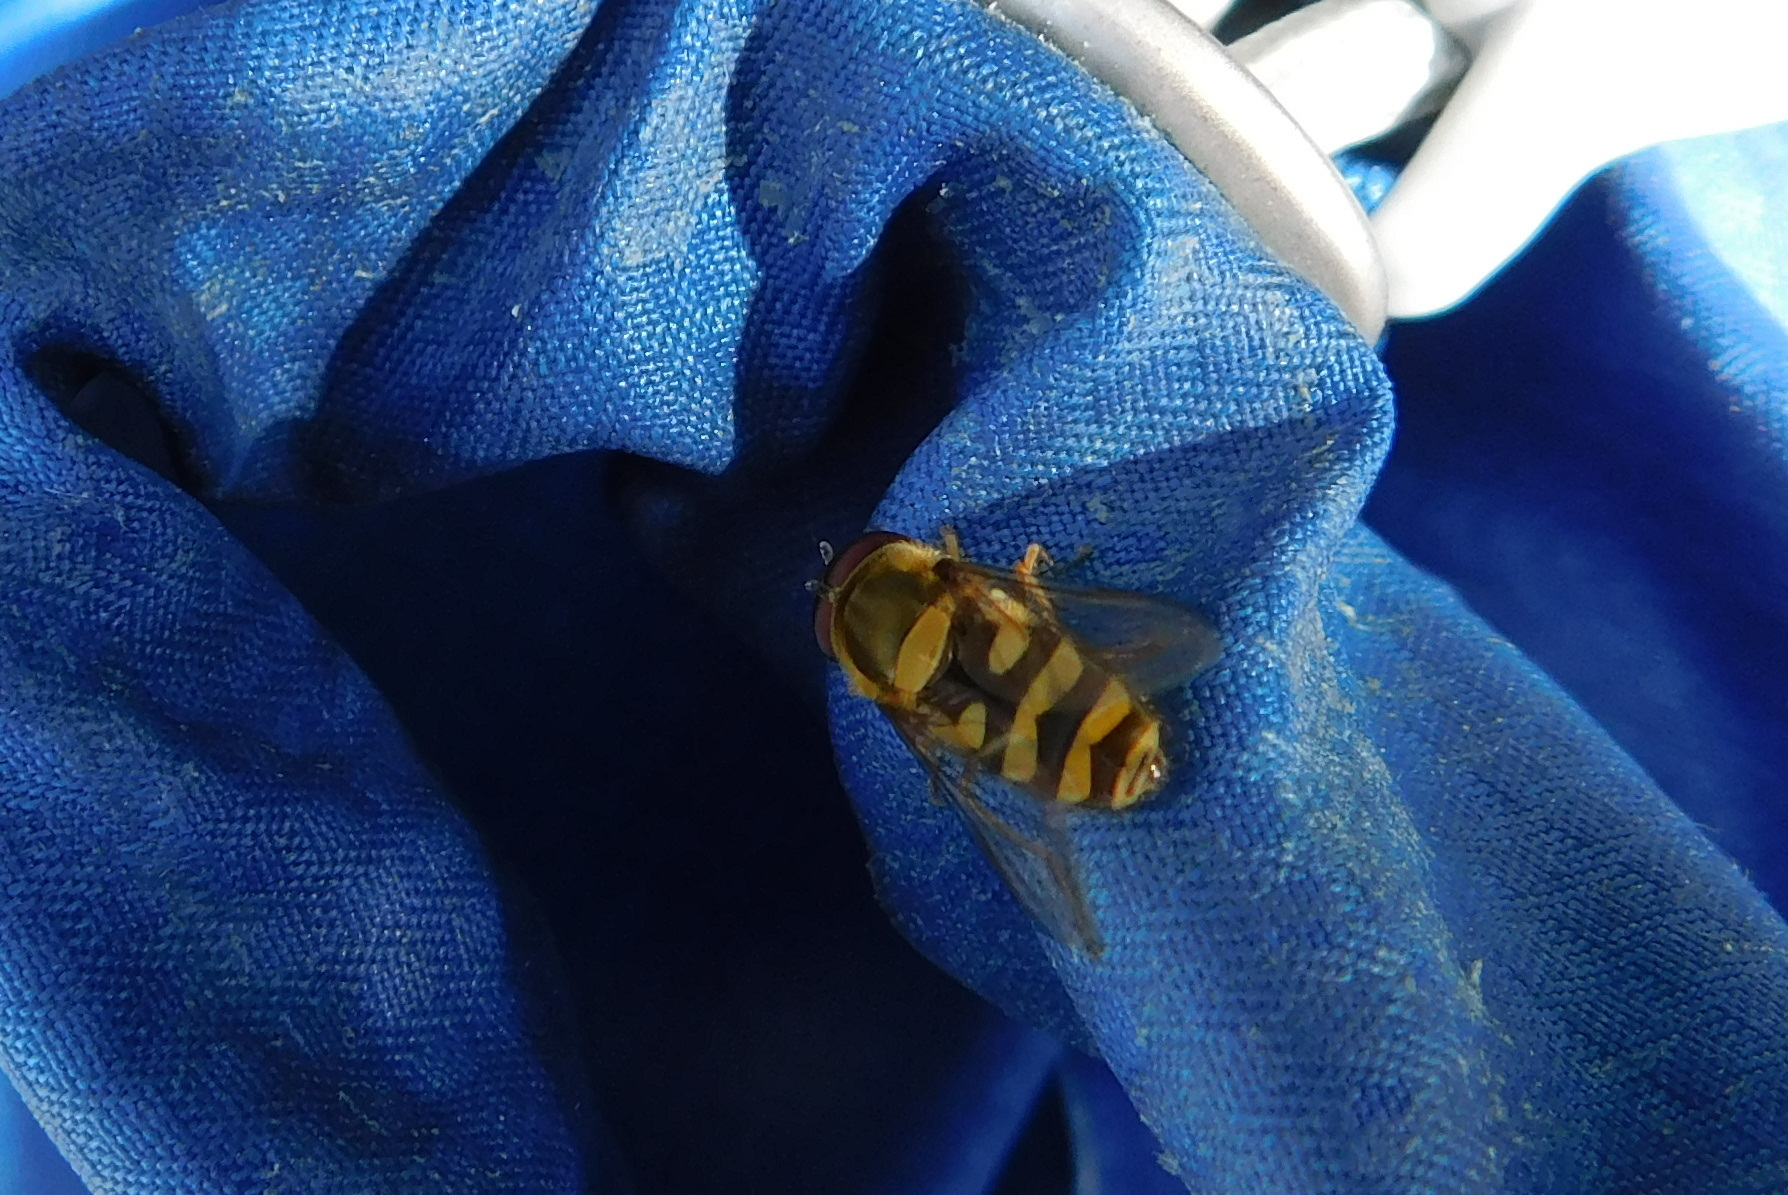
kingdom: Animalia
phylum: Arthropoda
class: Insecta
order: Diptera
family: Syrphidae
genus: Syrphus
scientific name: Syrphus
